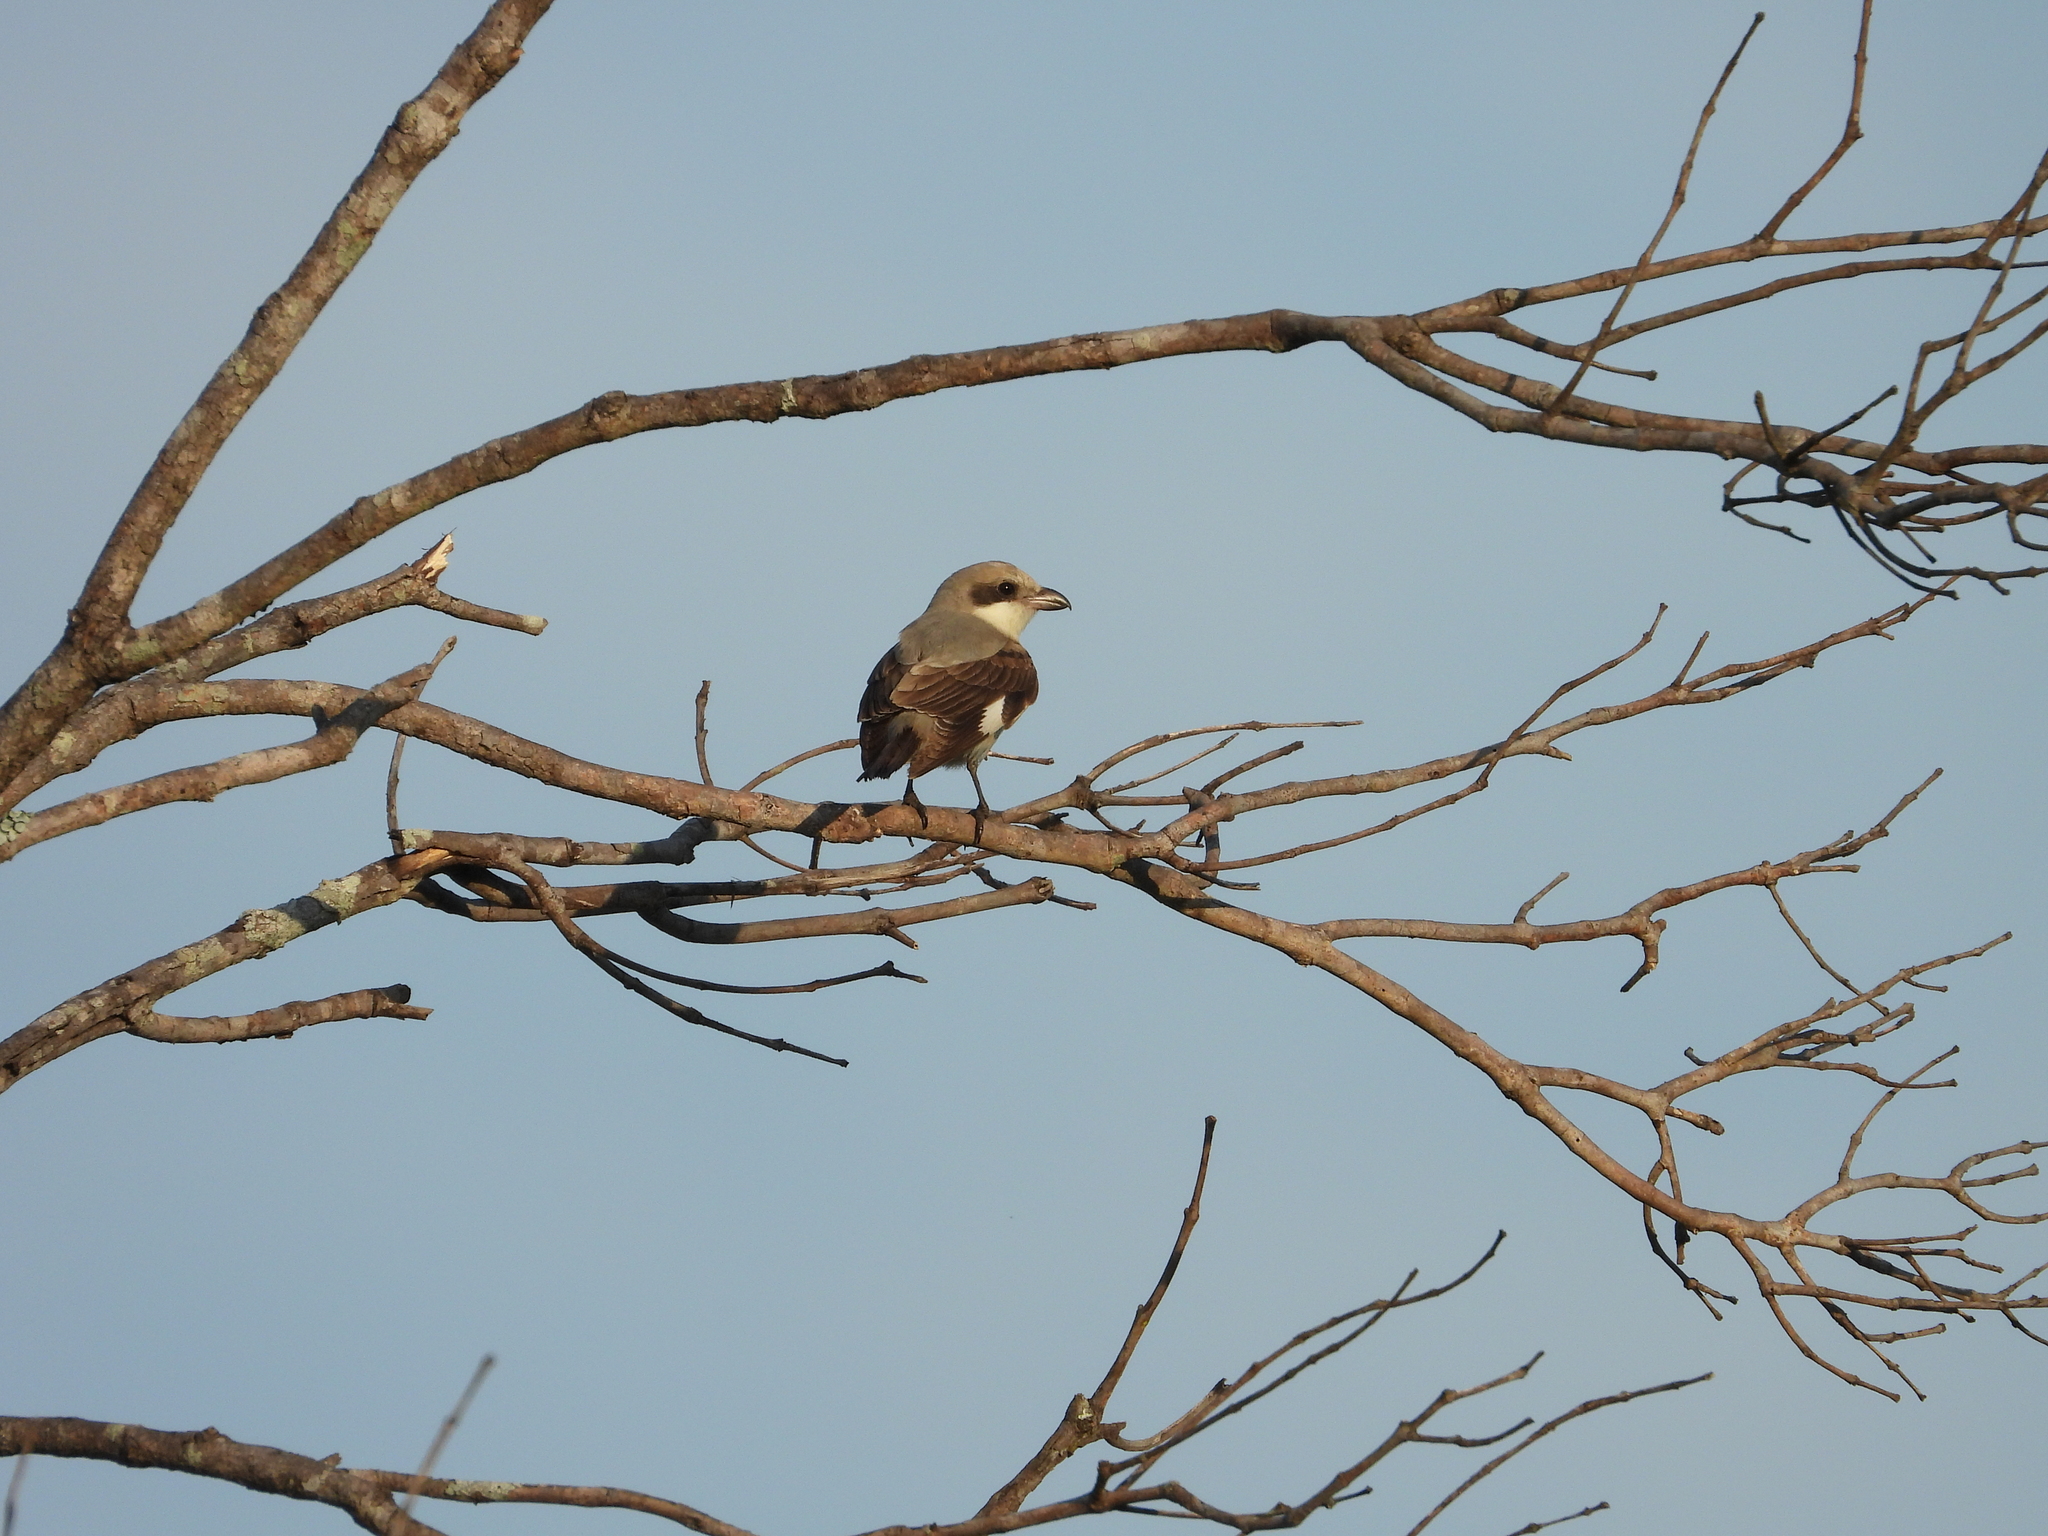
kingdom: Animalia
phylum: Chordata
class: Aves
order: Passeriformes
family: Laniidae
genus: Lanius
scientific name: Lanius minor
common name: Lesser grey shrike
